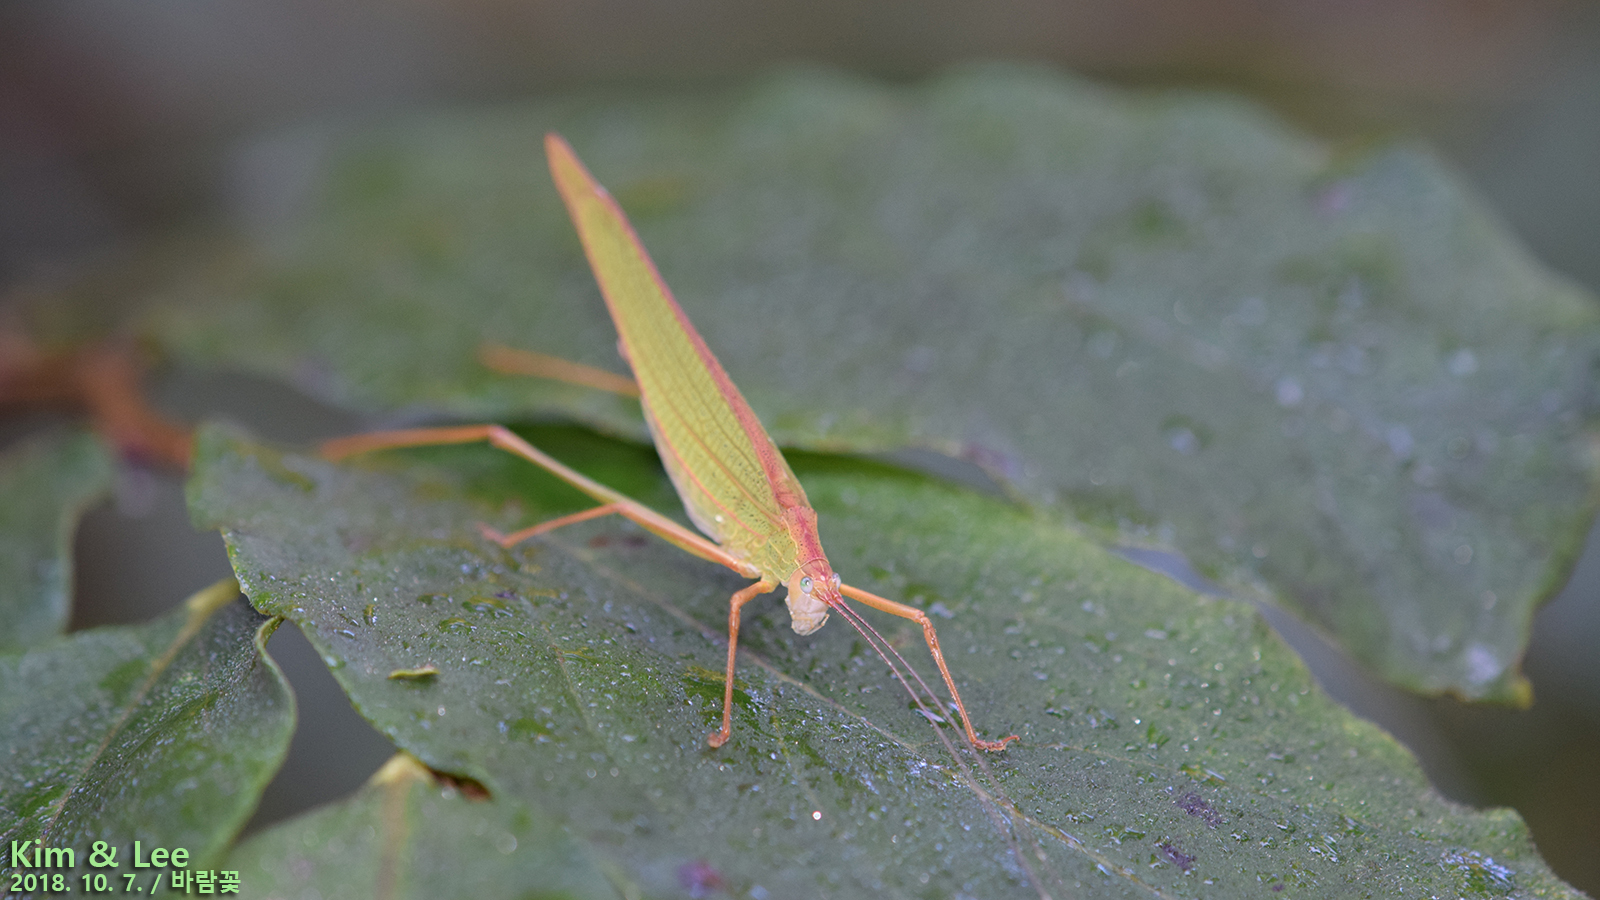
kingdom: Animalia
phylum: Arthropoda
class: Insecta
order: Orthoptera
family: Tettigoniidae
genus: Elimaea
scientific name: Elimaea fallax
